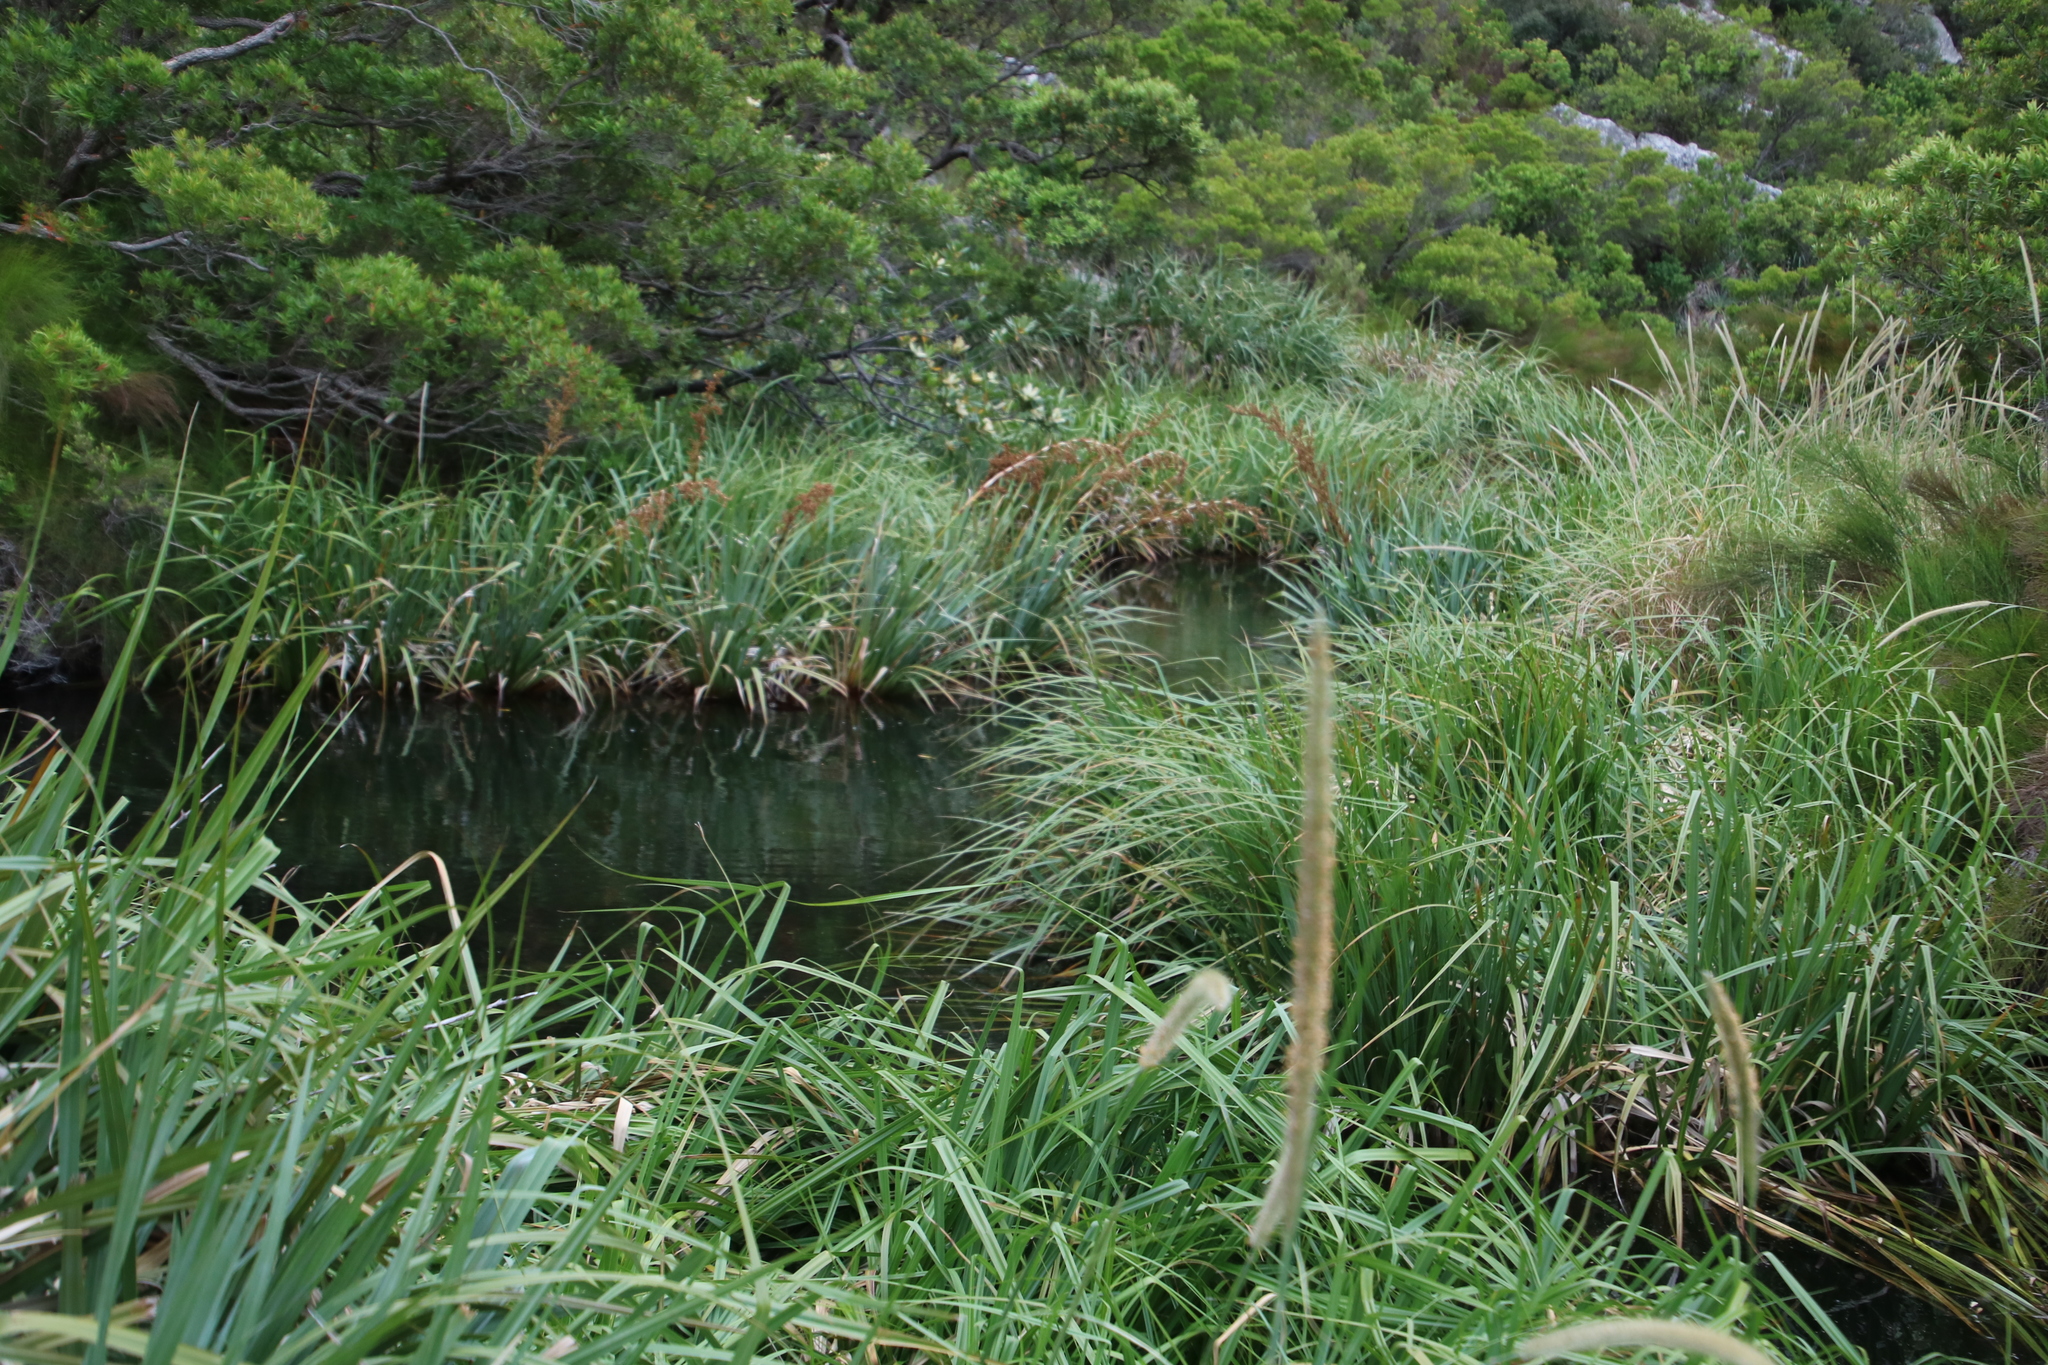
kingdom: Plantae
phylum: Tracheophyta
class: Liliopsida
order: Poales
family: Thurniaceae
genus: Prionium
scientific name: Prionium serratum
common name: Palmiet
